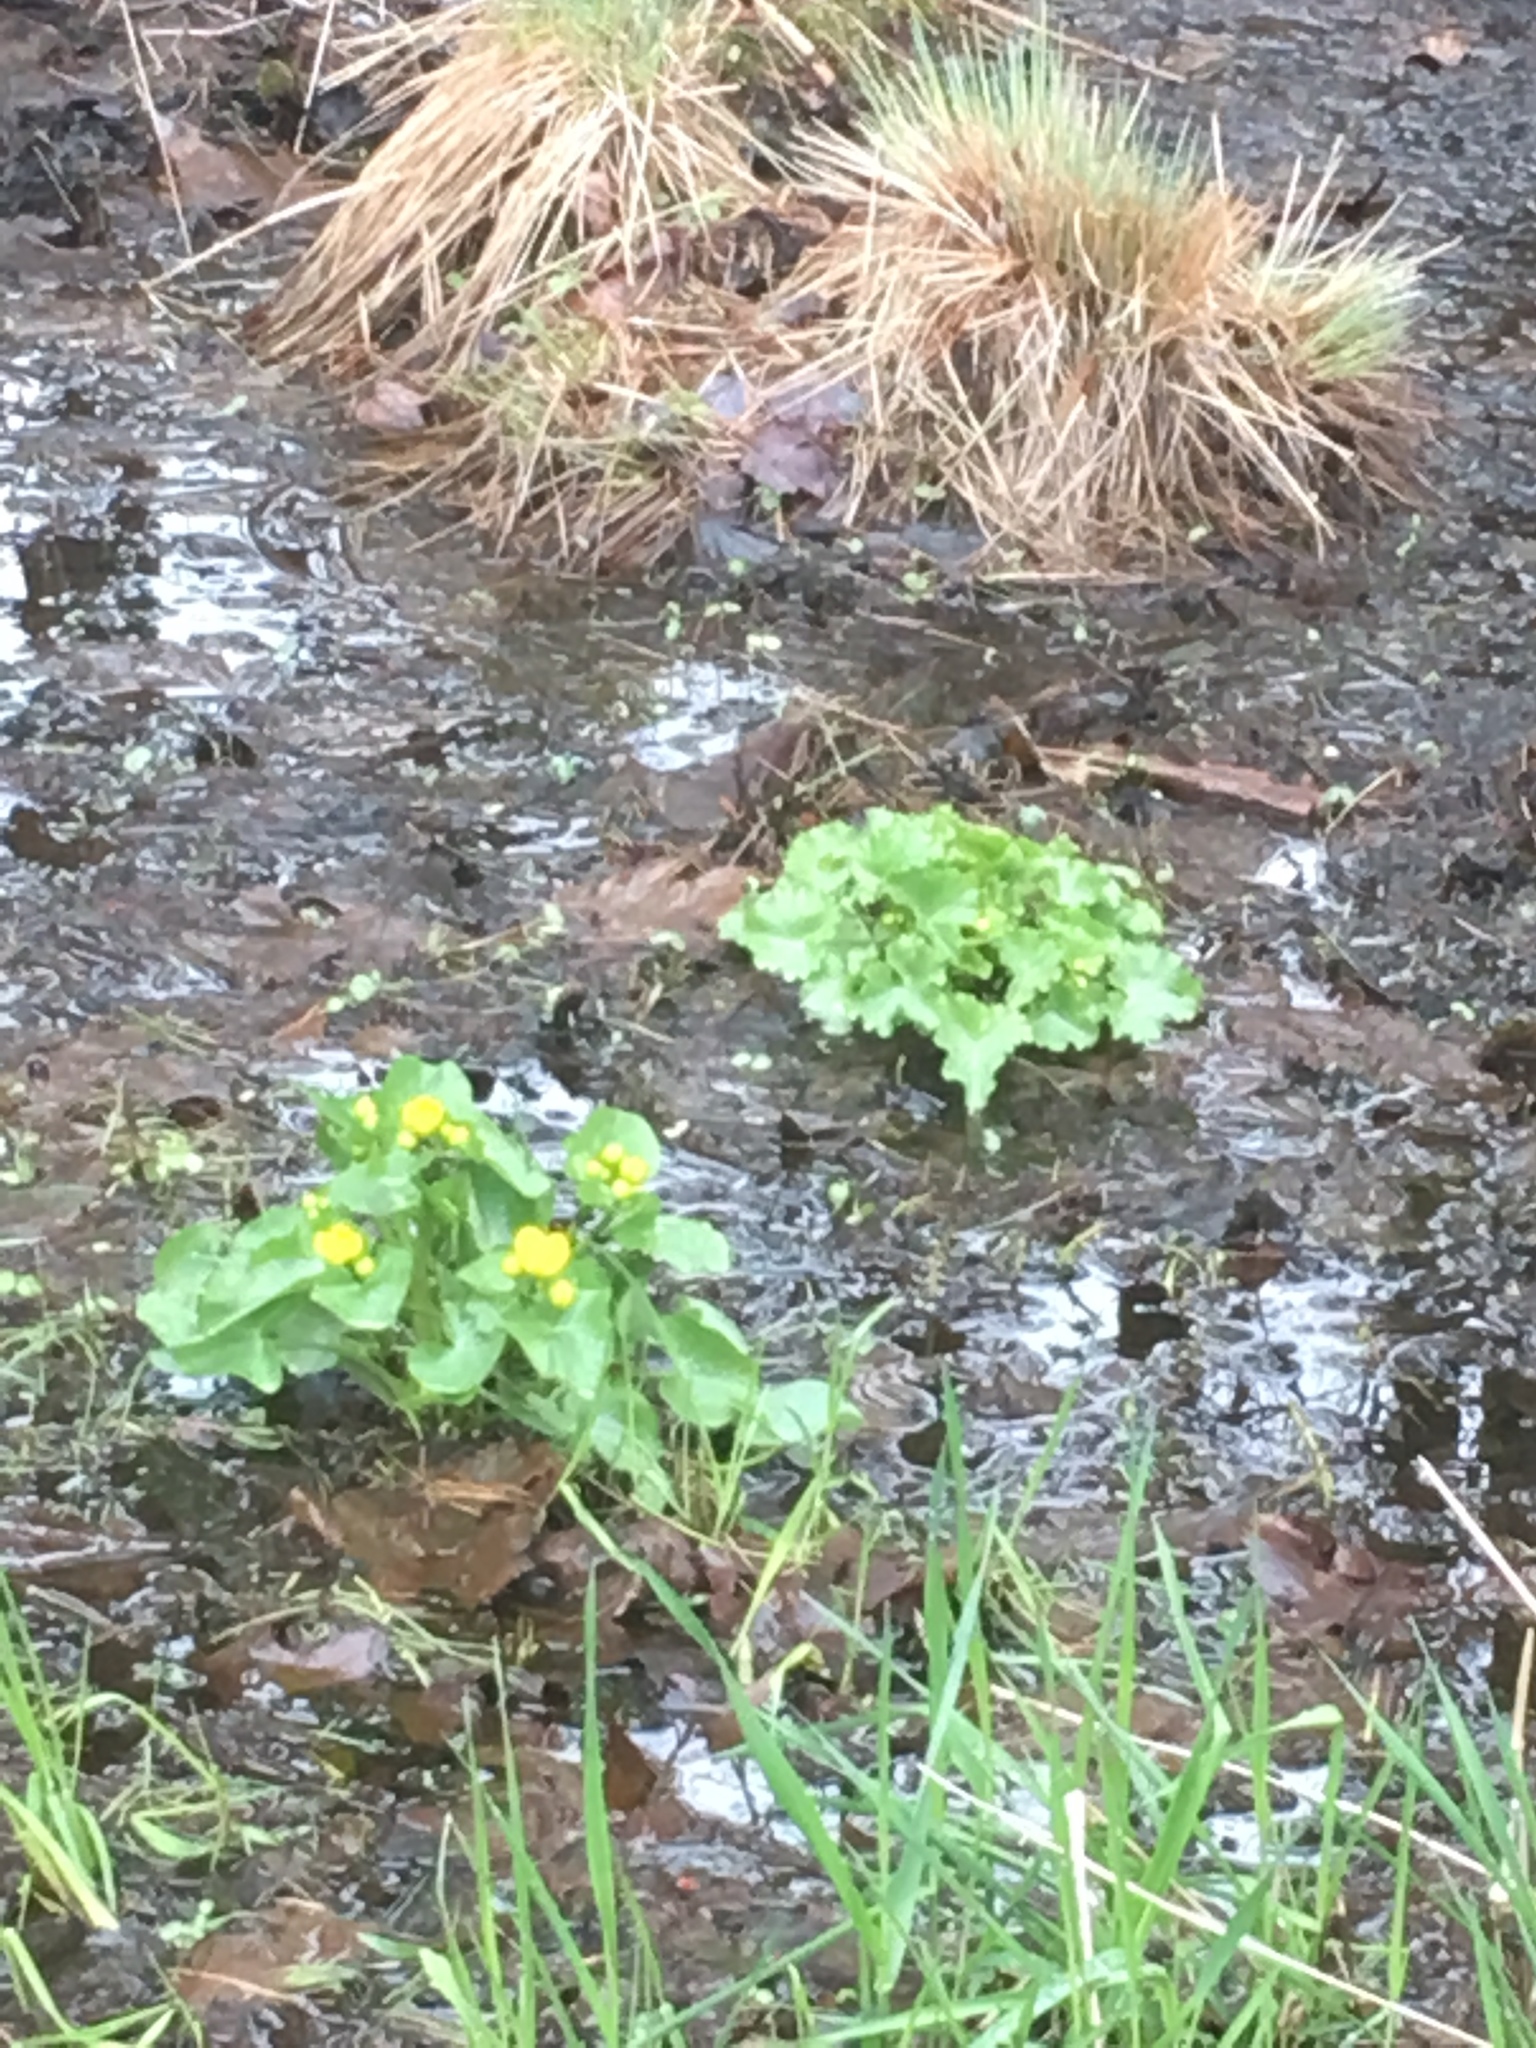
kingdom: Plantae
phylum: Tracheophyta
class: Magnoliopsida
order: Ranunculales
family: Ranunculaceae
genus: Caltha
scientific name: Caltha palustris
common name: Marsh marigold
